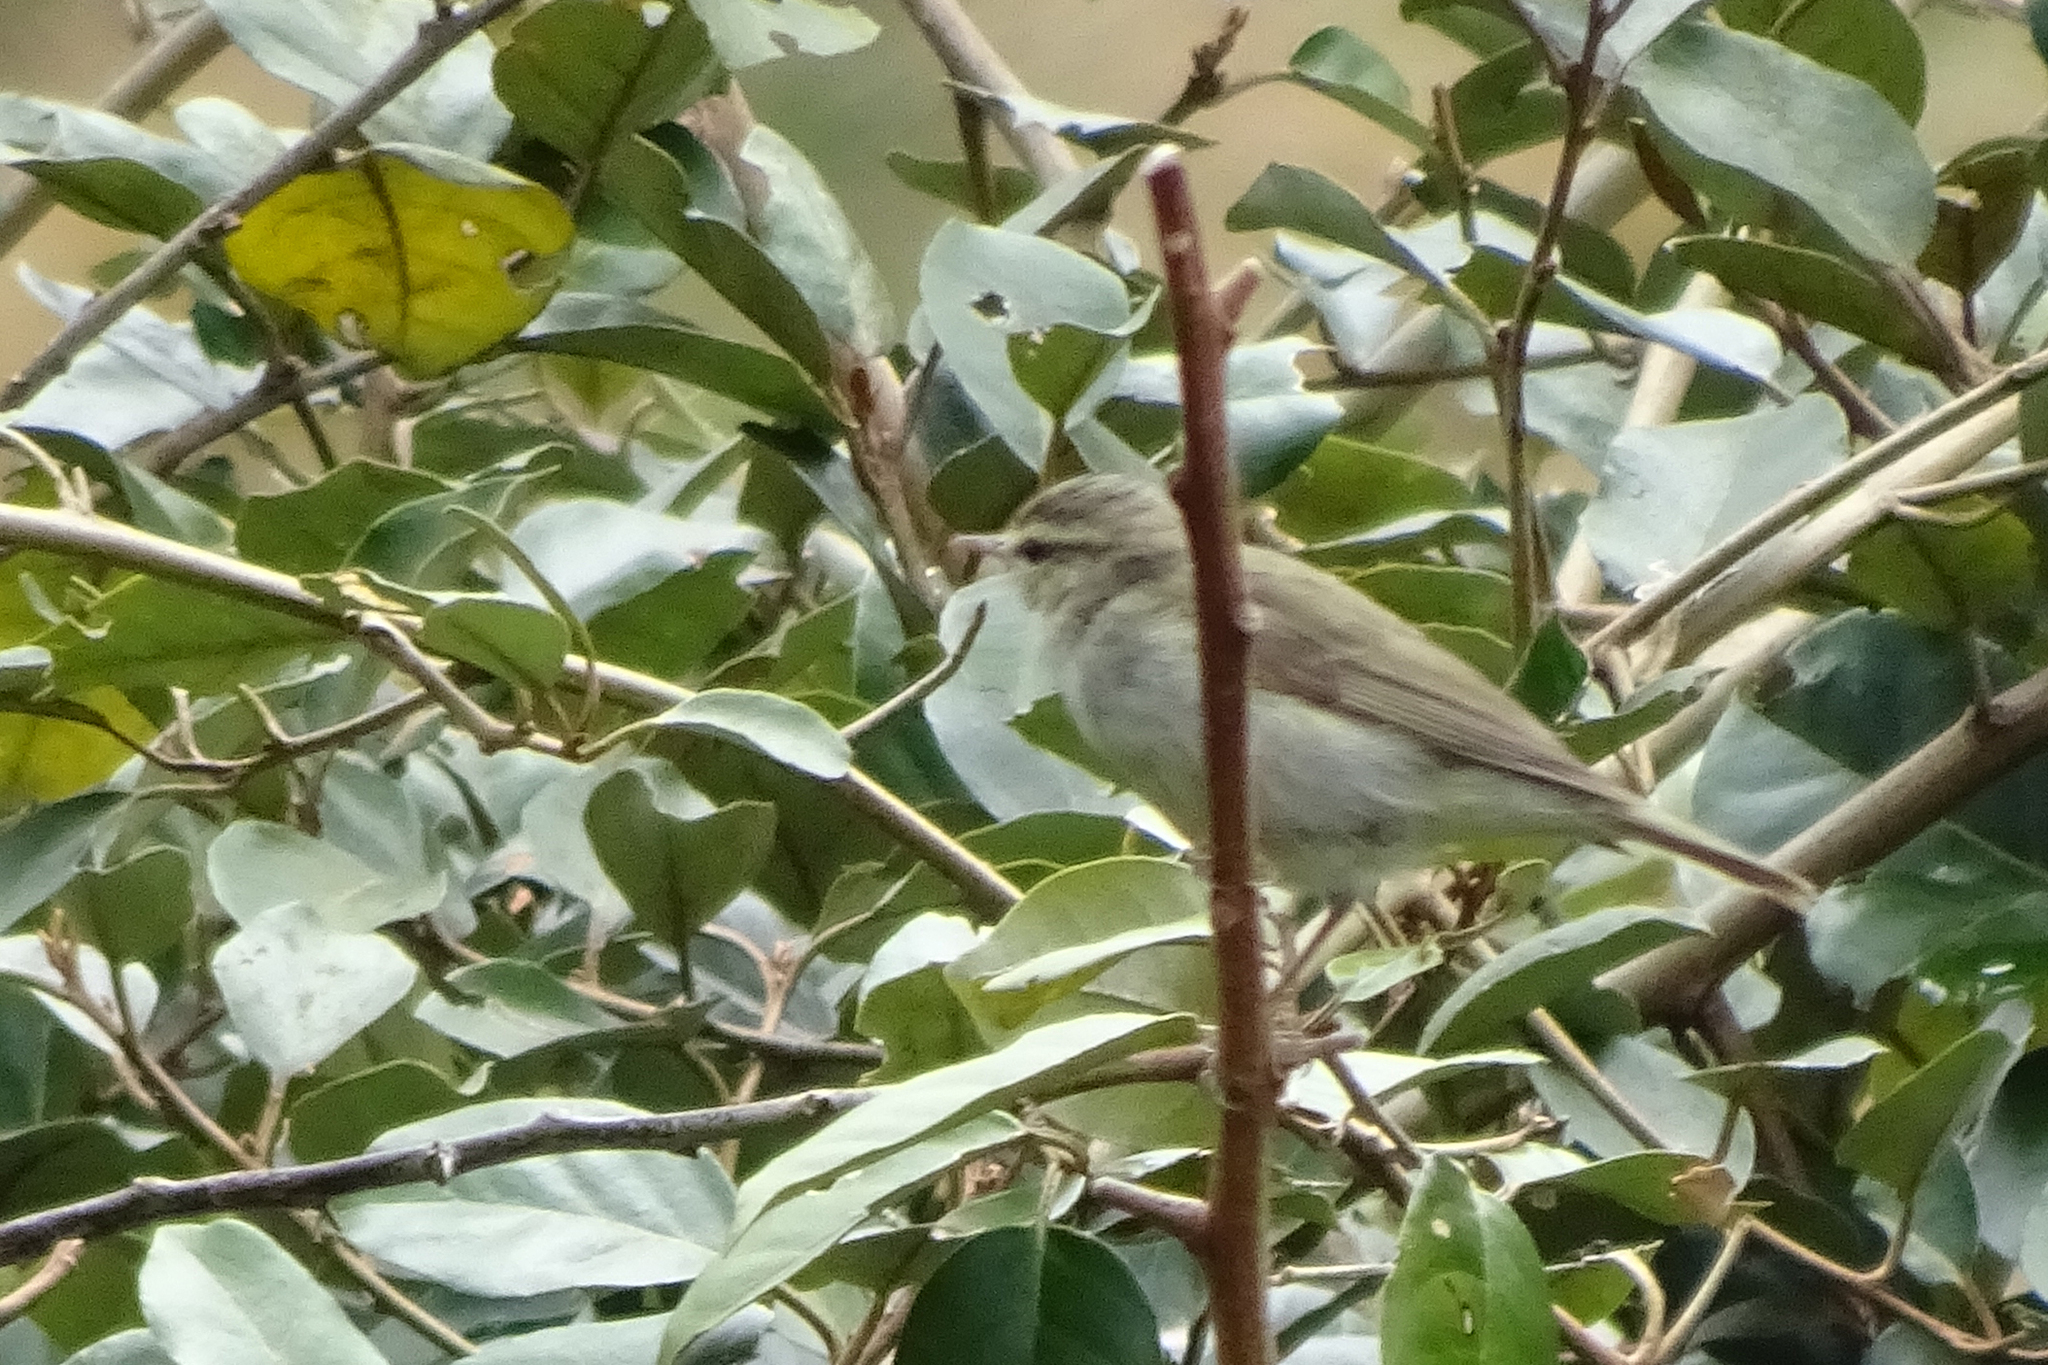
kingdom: Animalia
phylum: Chordata
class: Aves
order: Passeriformes
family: Phylloscopidae
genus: Phylloscopus
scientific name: Phylloscopus trochiloides
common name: Greenish warbler
